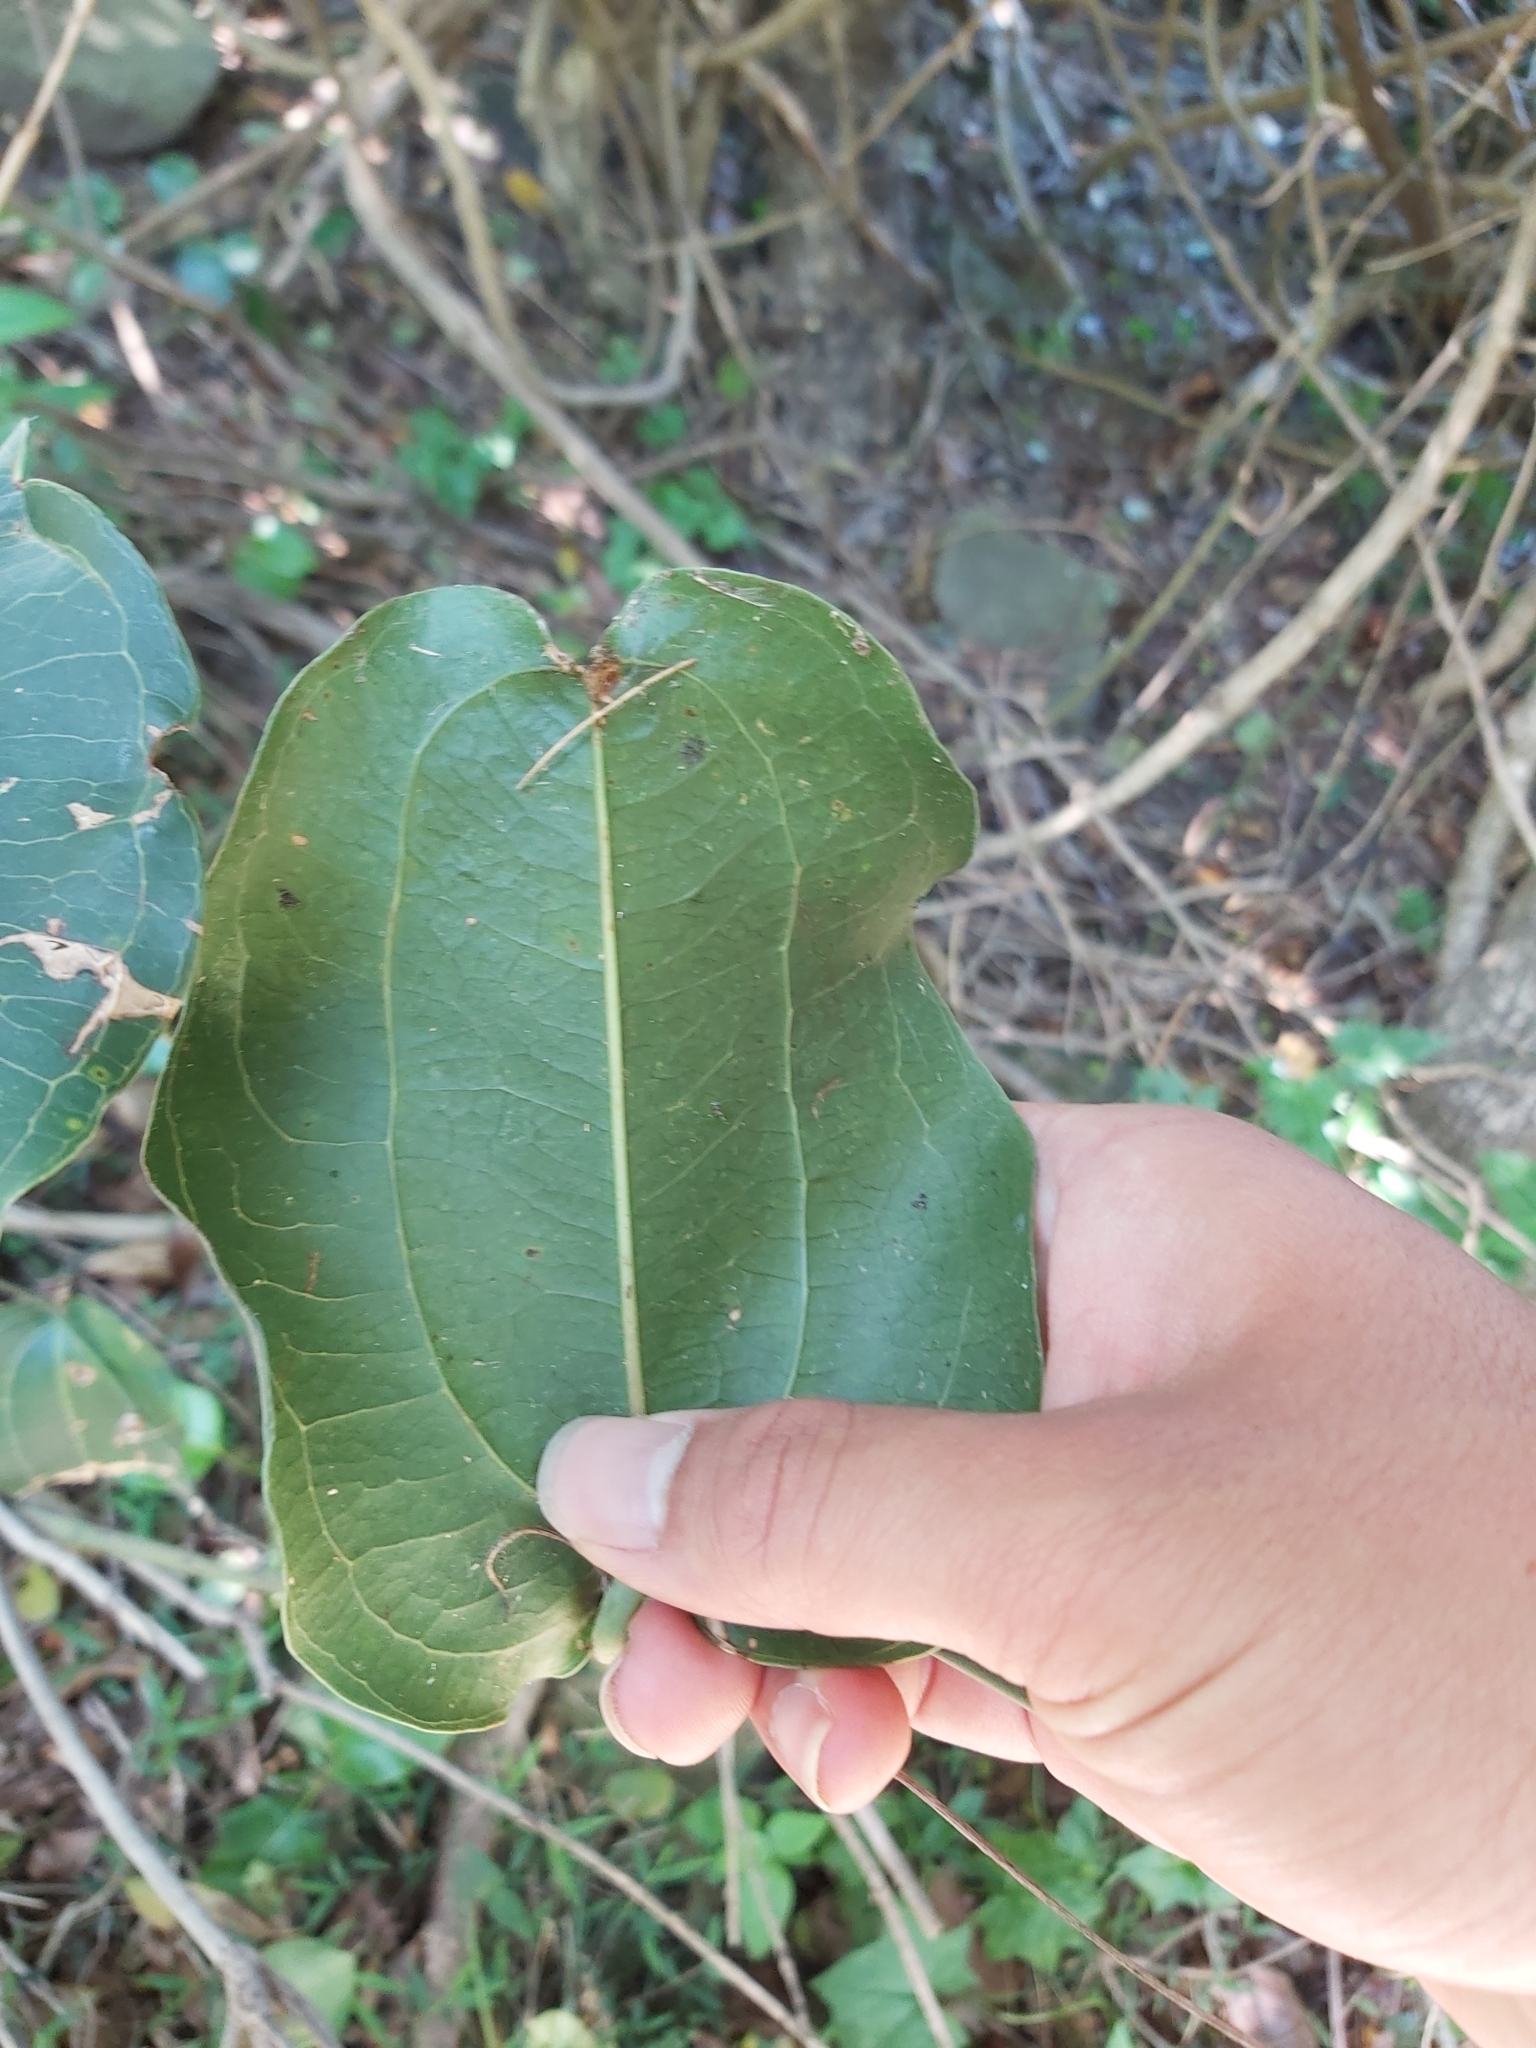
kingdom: Plantae
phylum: Tracheophyta
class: Liliopsida
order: Liliales
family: Smilacaceae
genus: Smilax
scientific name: Smilax australis
